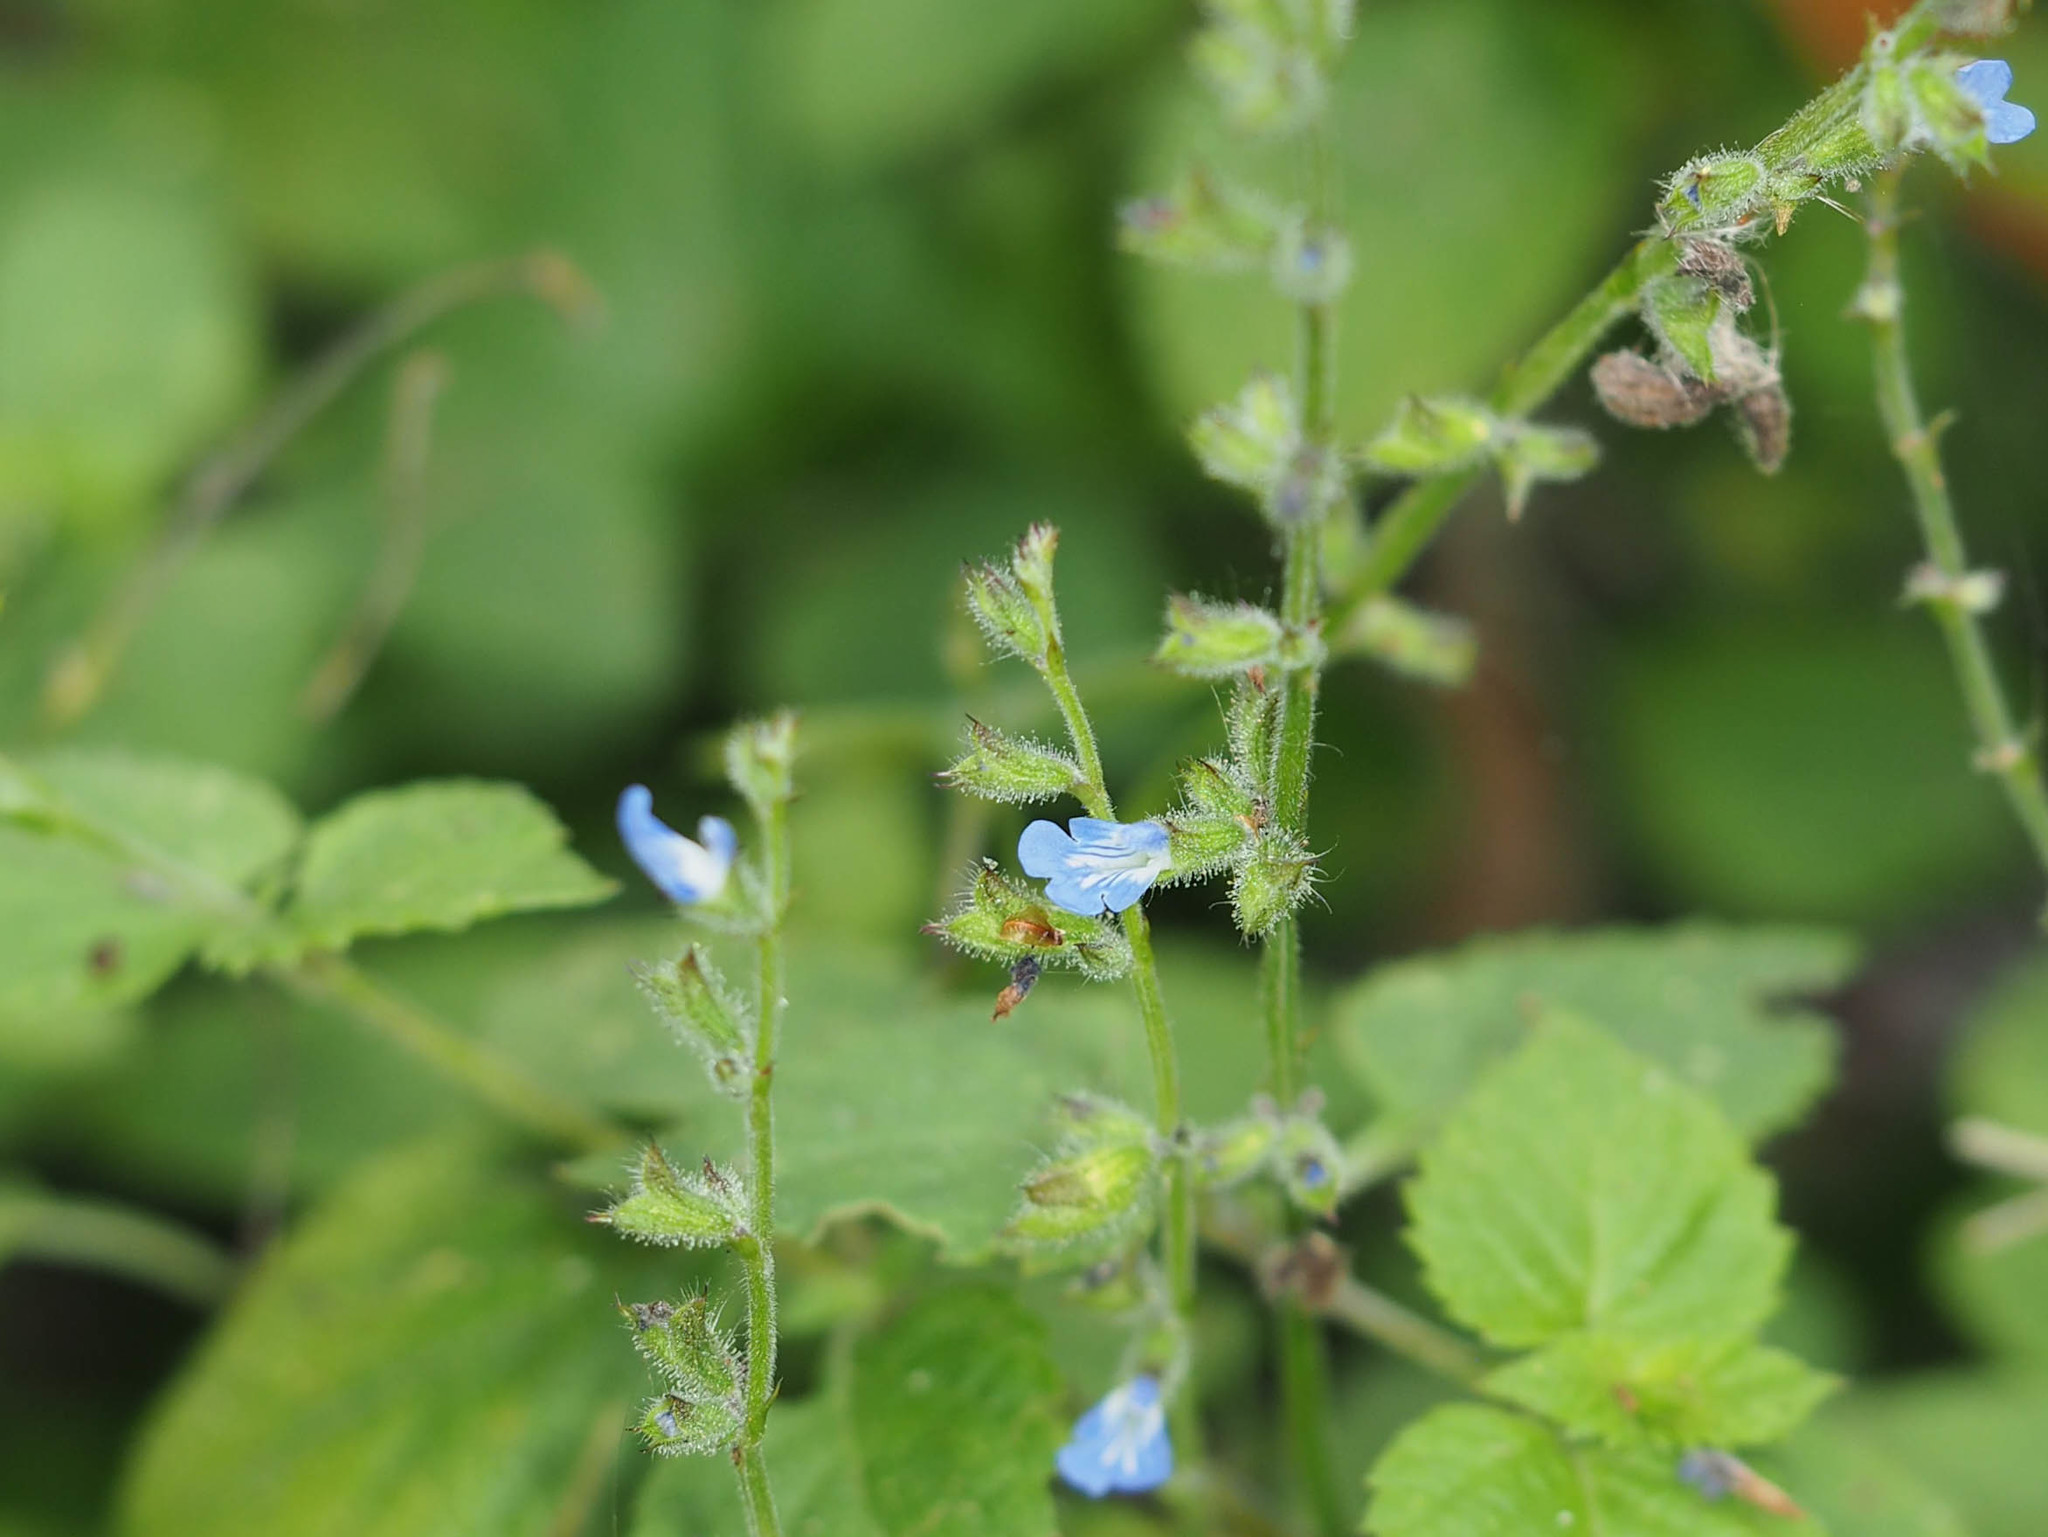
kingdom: Plantae
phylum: Tracheophyta
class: Magnoliopsida
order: Lamiales
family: Lamiaceae
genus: Salvia
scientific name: Salvia misella
